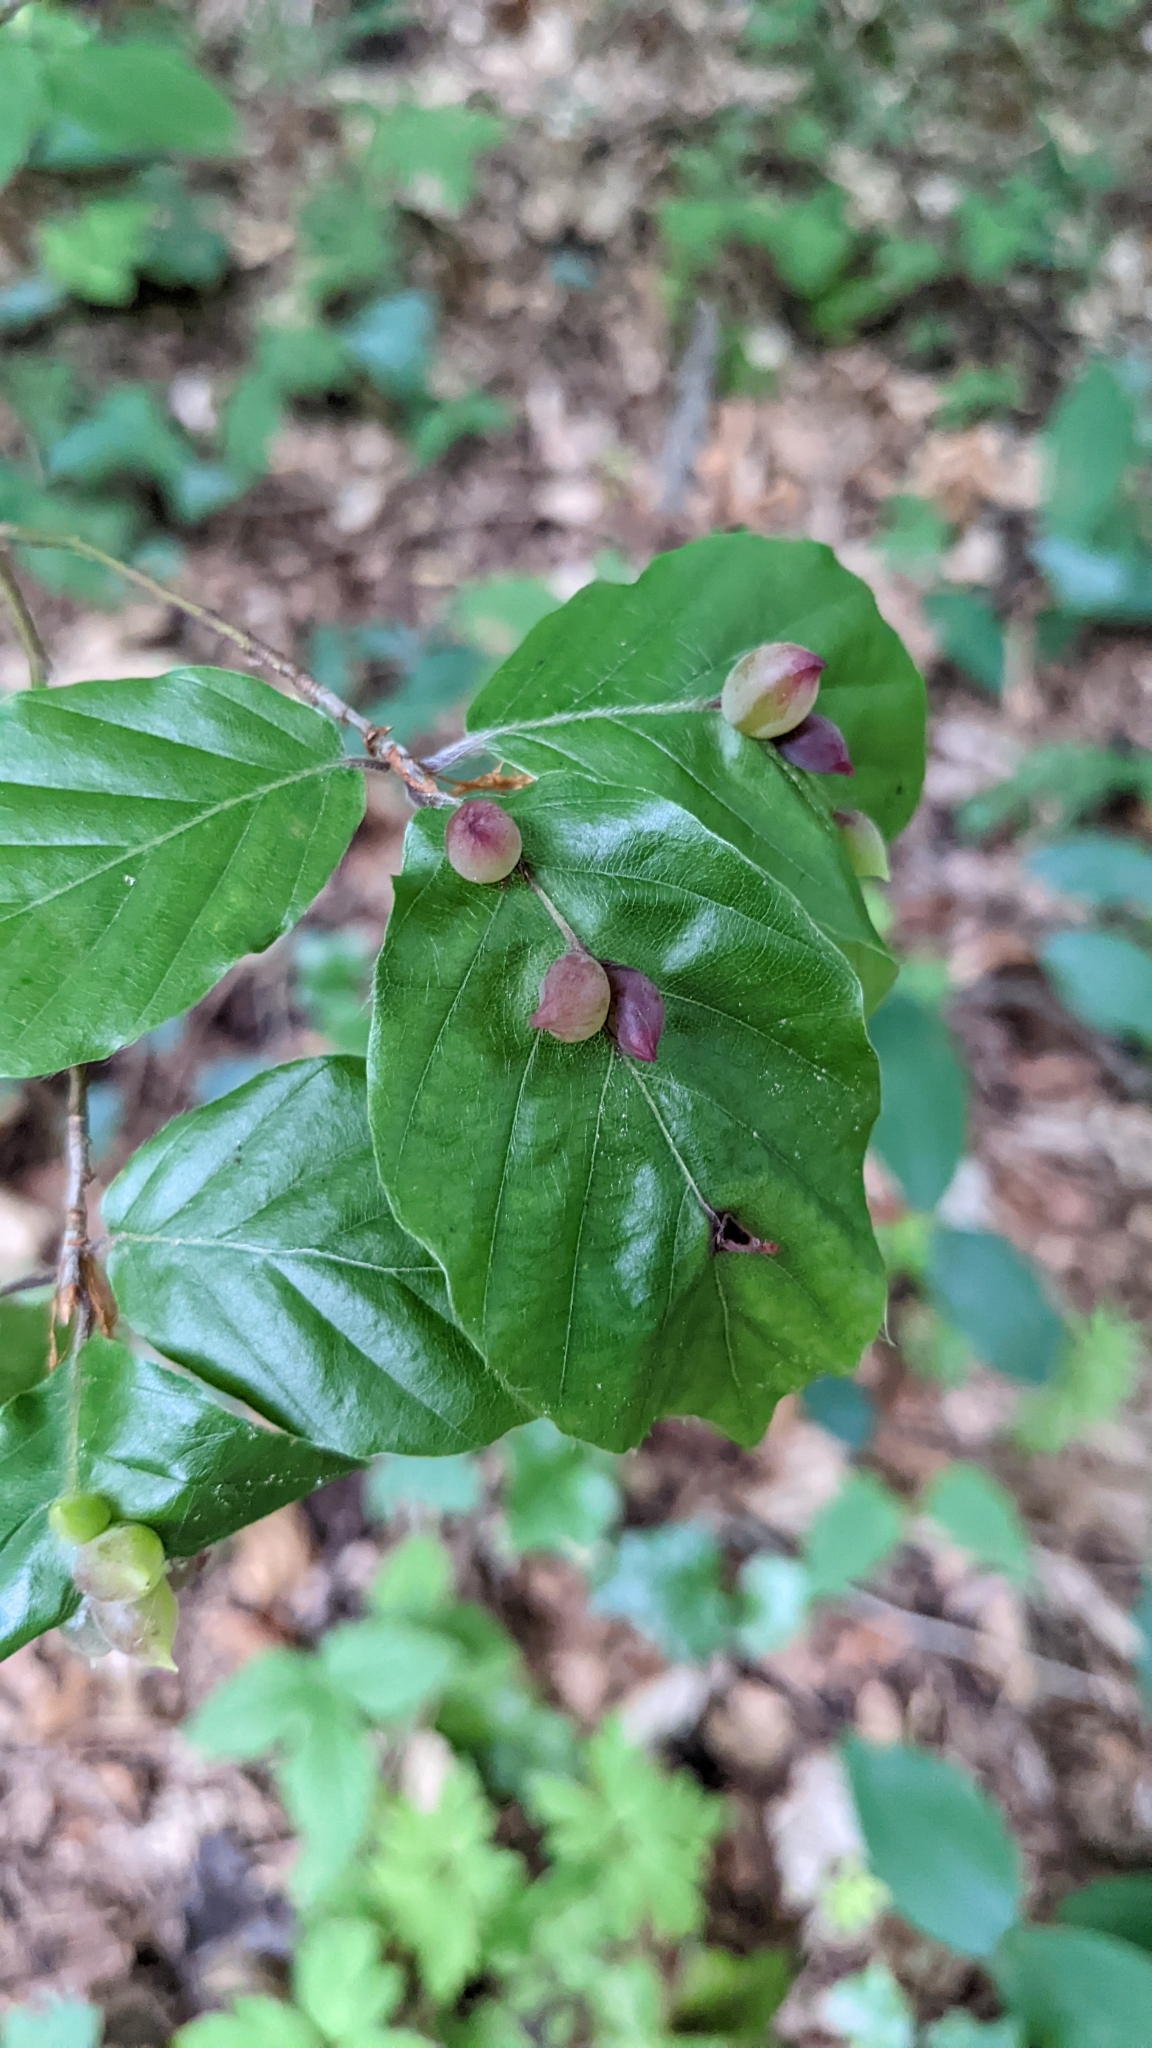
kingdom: Plantae
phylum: Tracheophyta
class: Magnoliopsida
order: Fagales
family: Fagaceae
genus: Fagus
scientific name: Fagus sylvatica
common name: Beech
